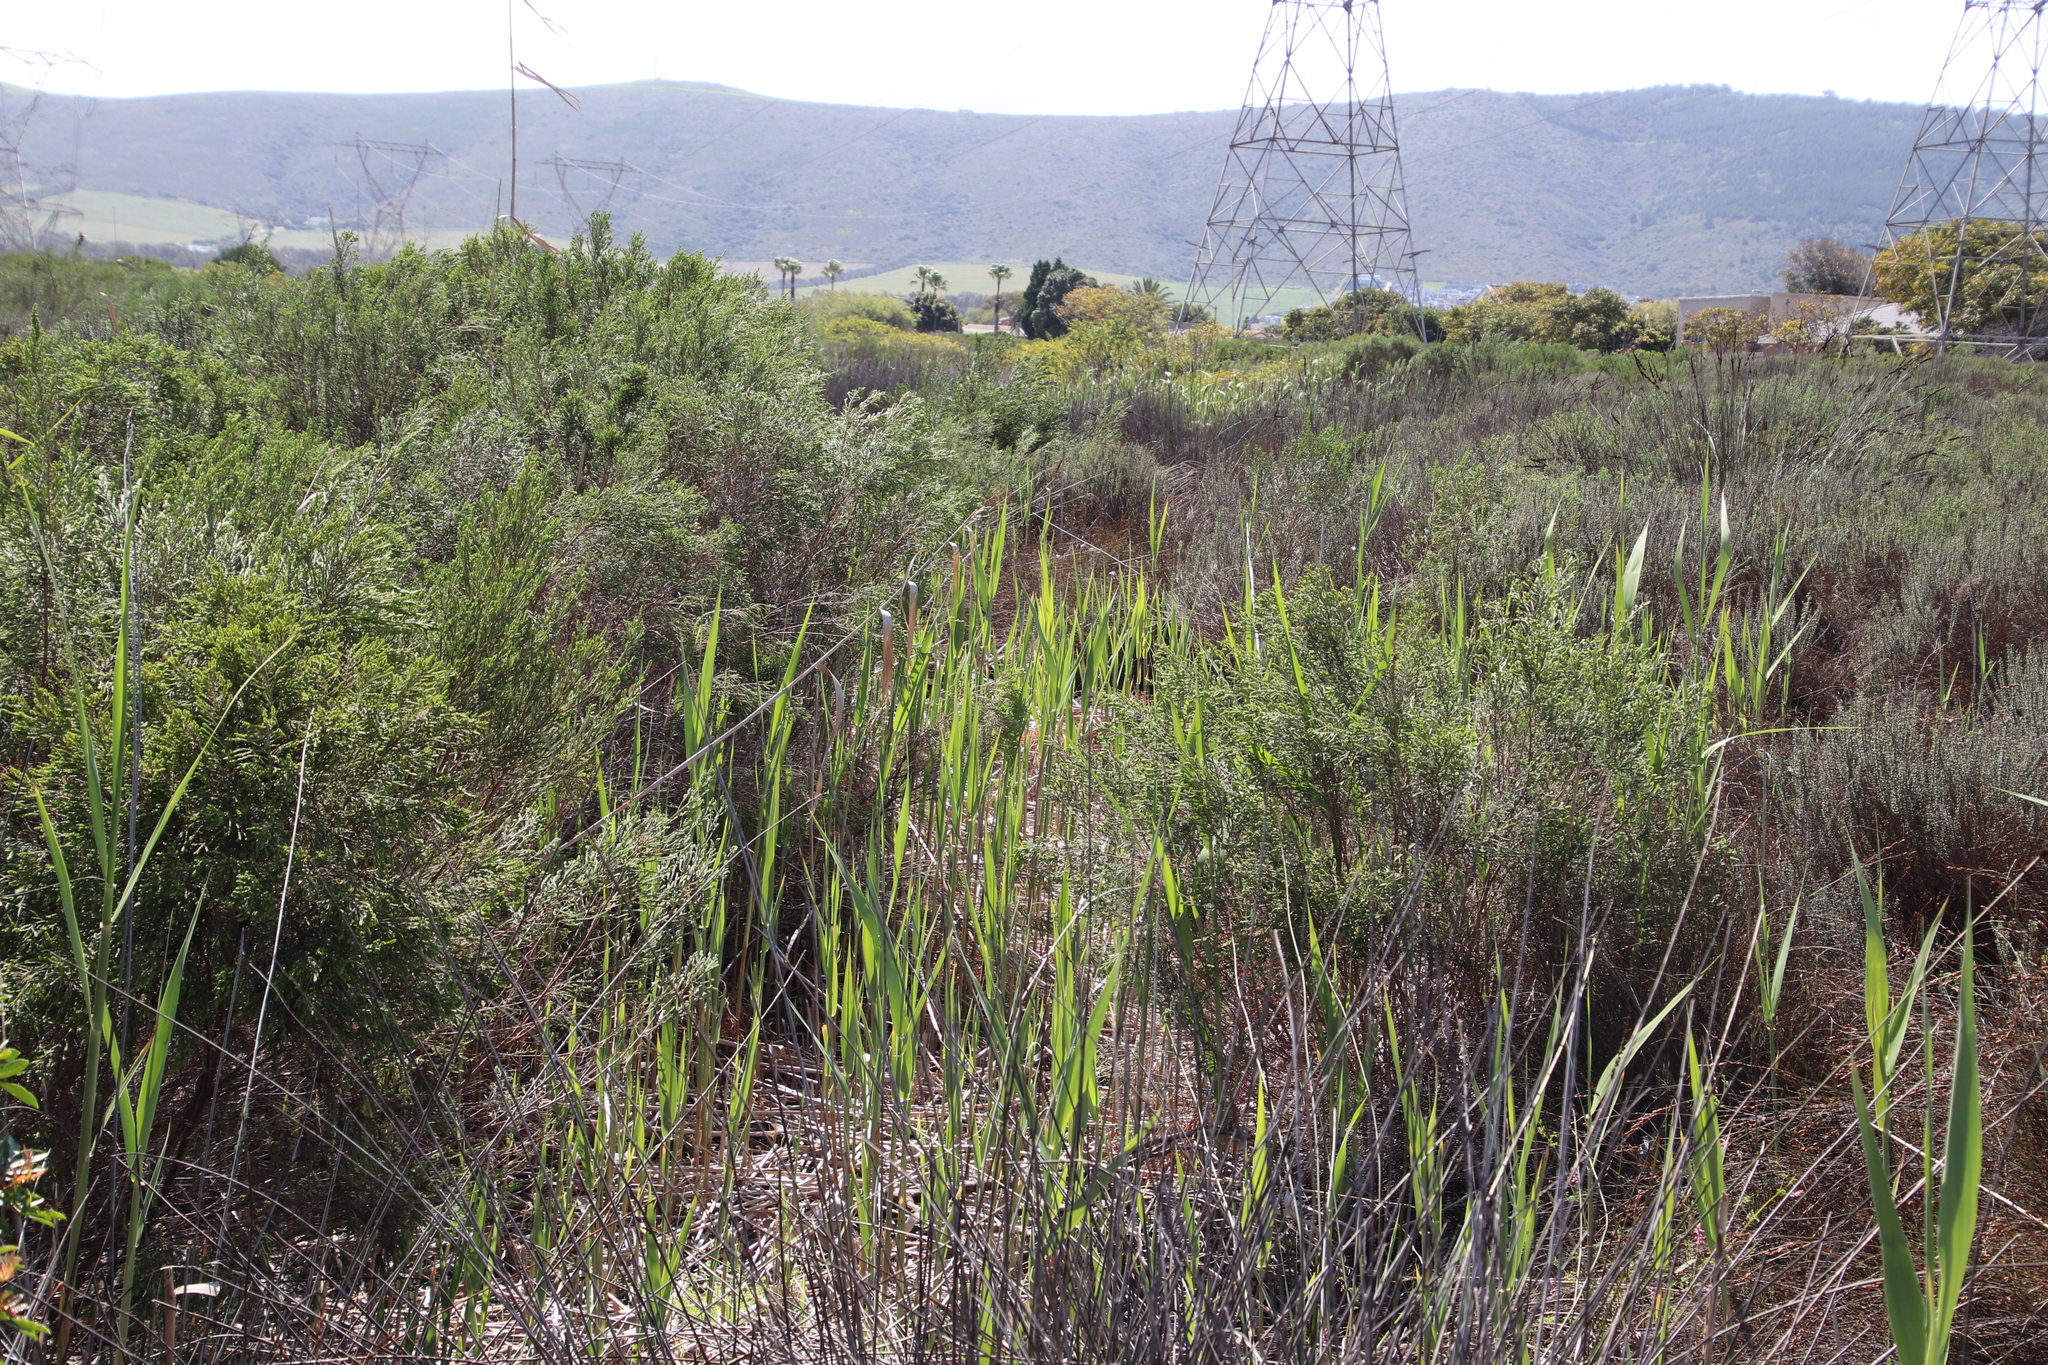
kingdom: Plantae
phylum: Tracheophyta
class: Liliopsida
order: Poales
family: Poaceae
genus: Phragmites
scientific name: Phragmites australis
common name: Common reed
